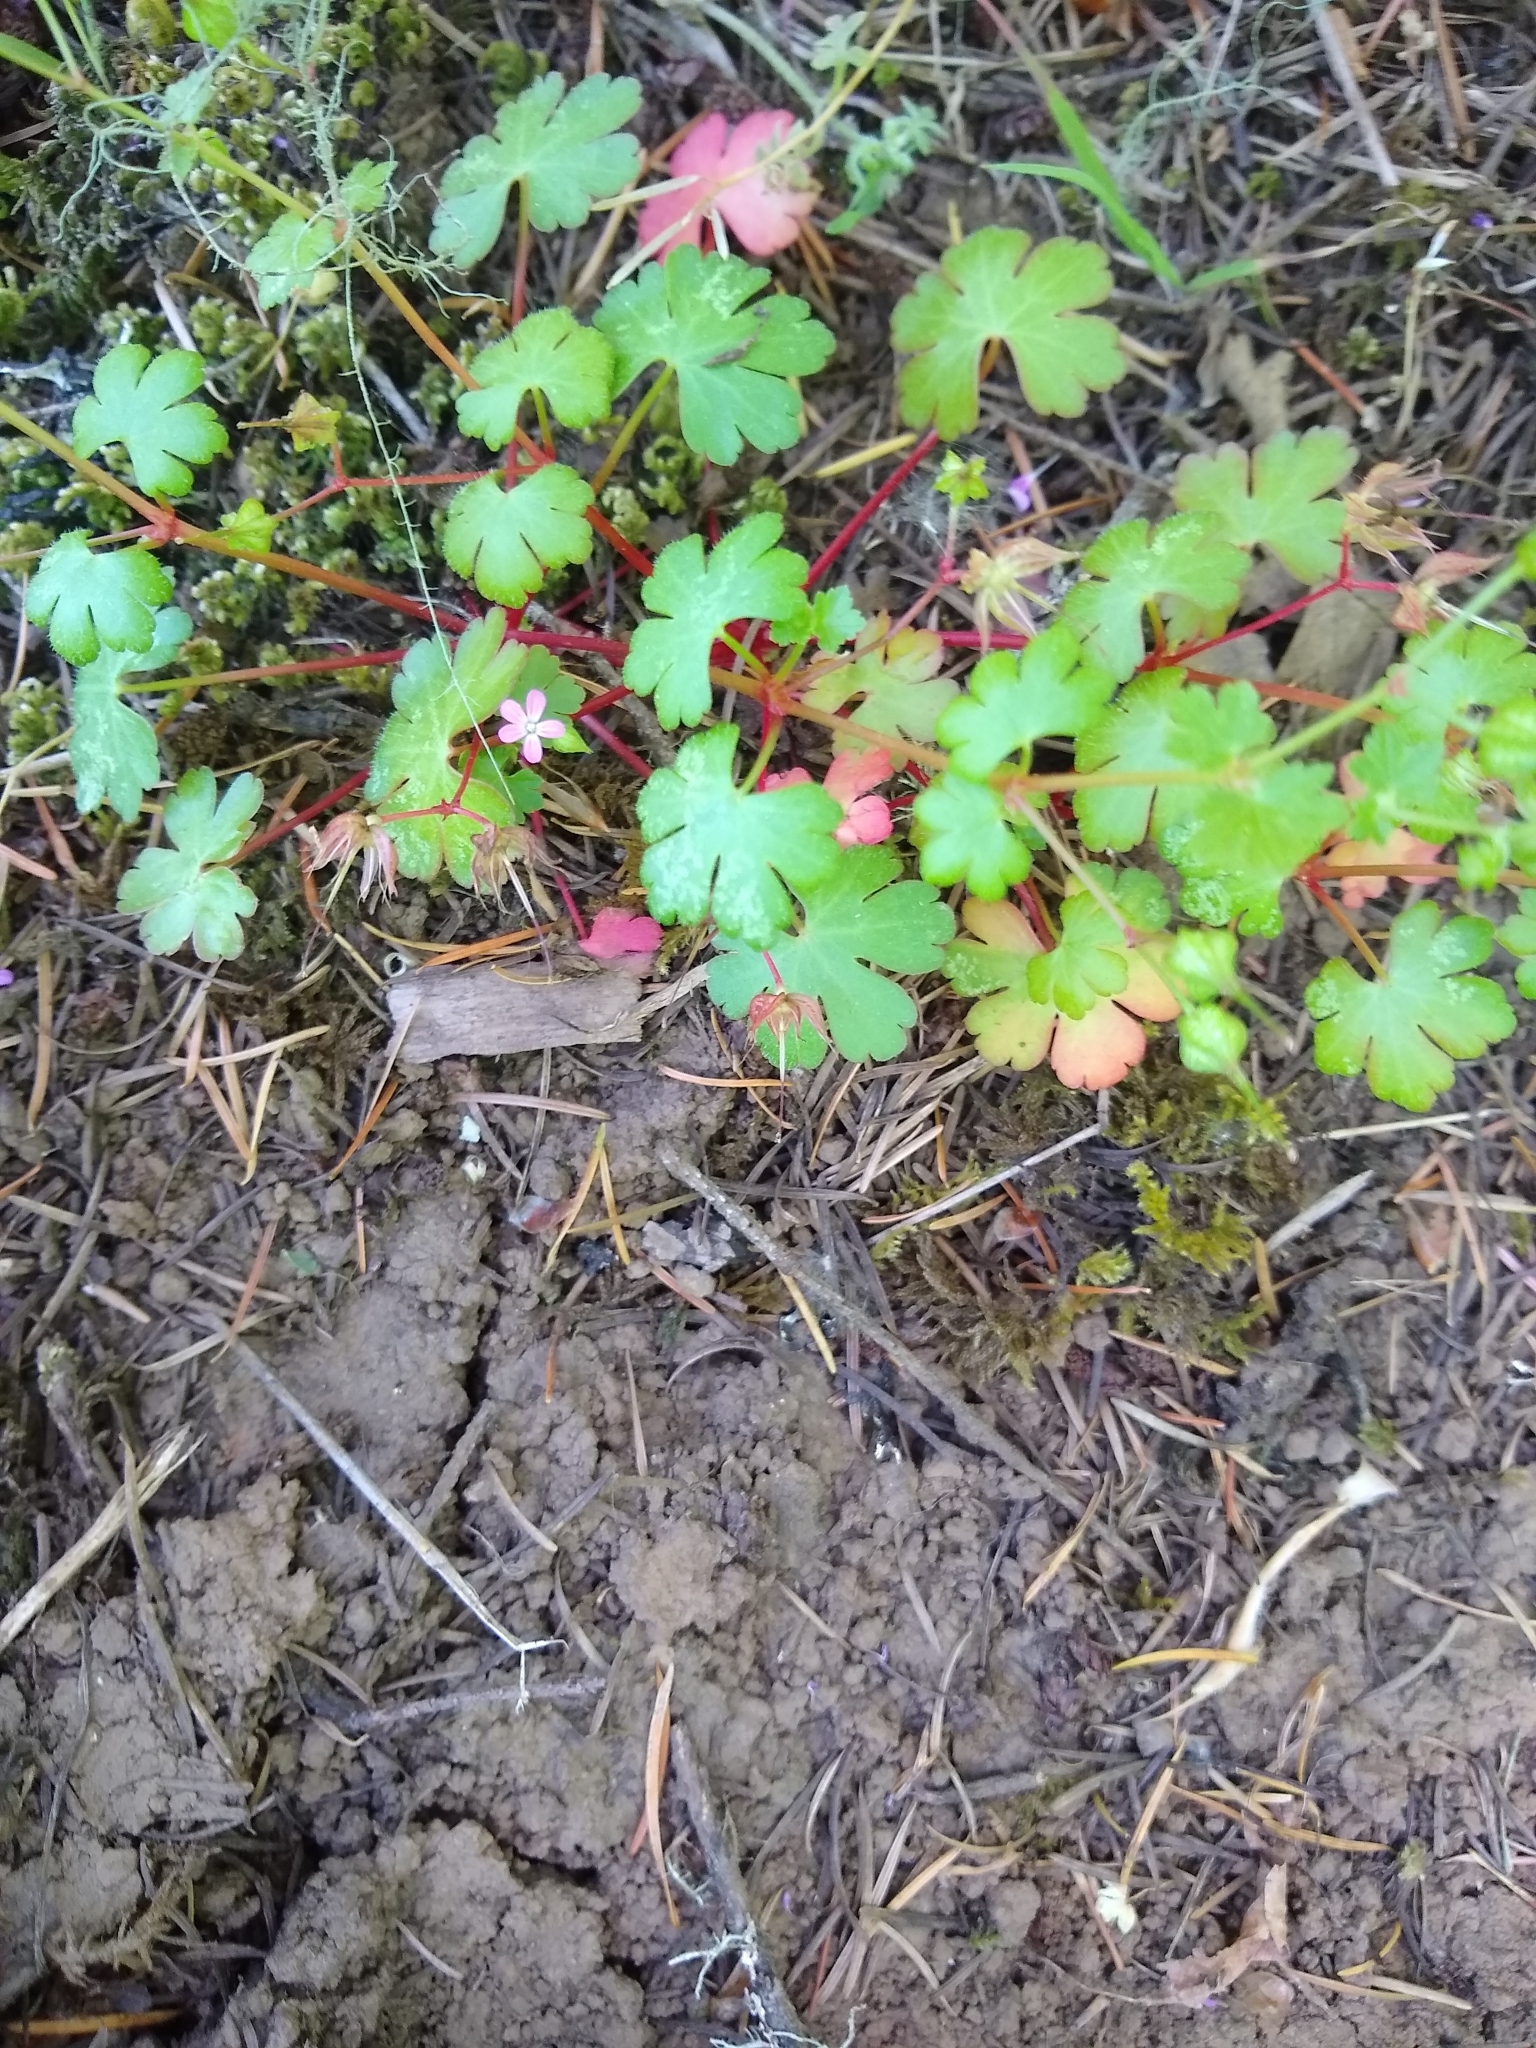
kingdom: Plantae
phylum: Tracheophyta
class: Magnoliopsida
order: Geraniales
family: Geraniaceae
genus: Geranium
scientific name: Geranium lucidum
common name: Shining crane's-bill
